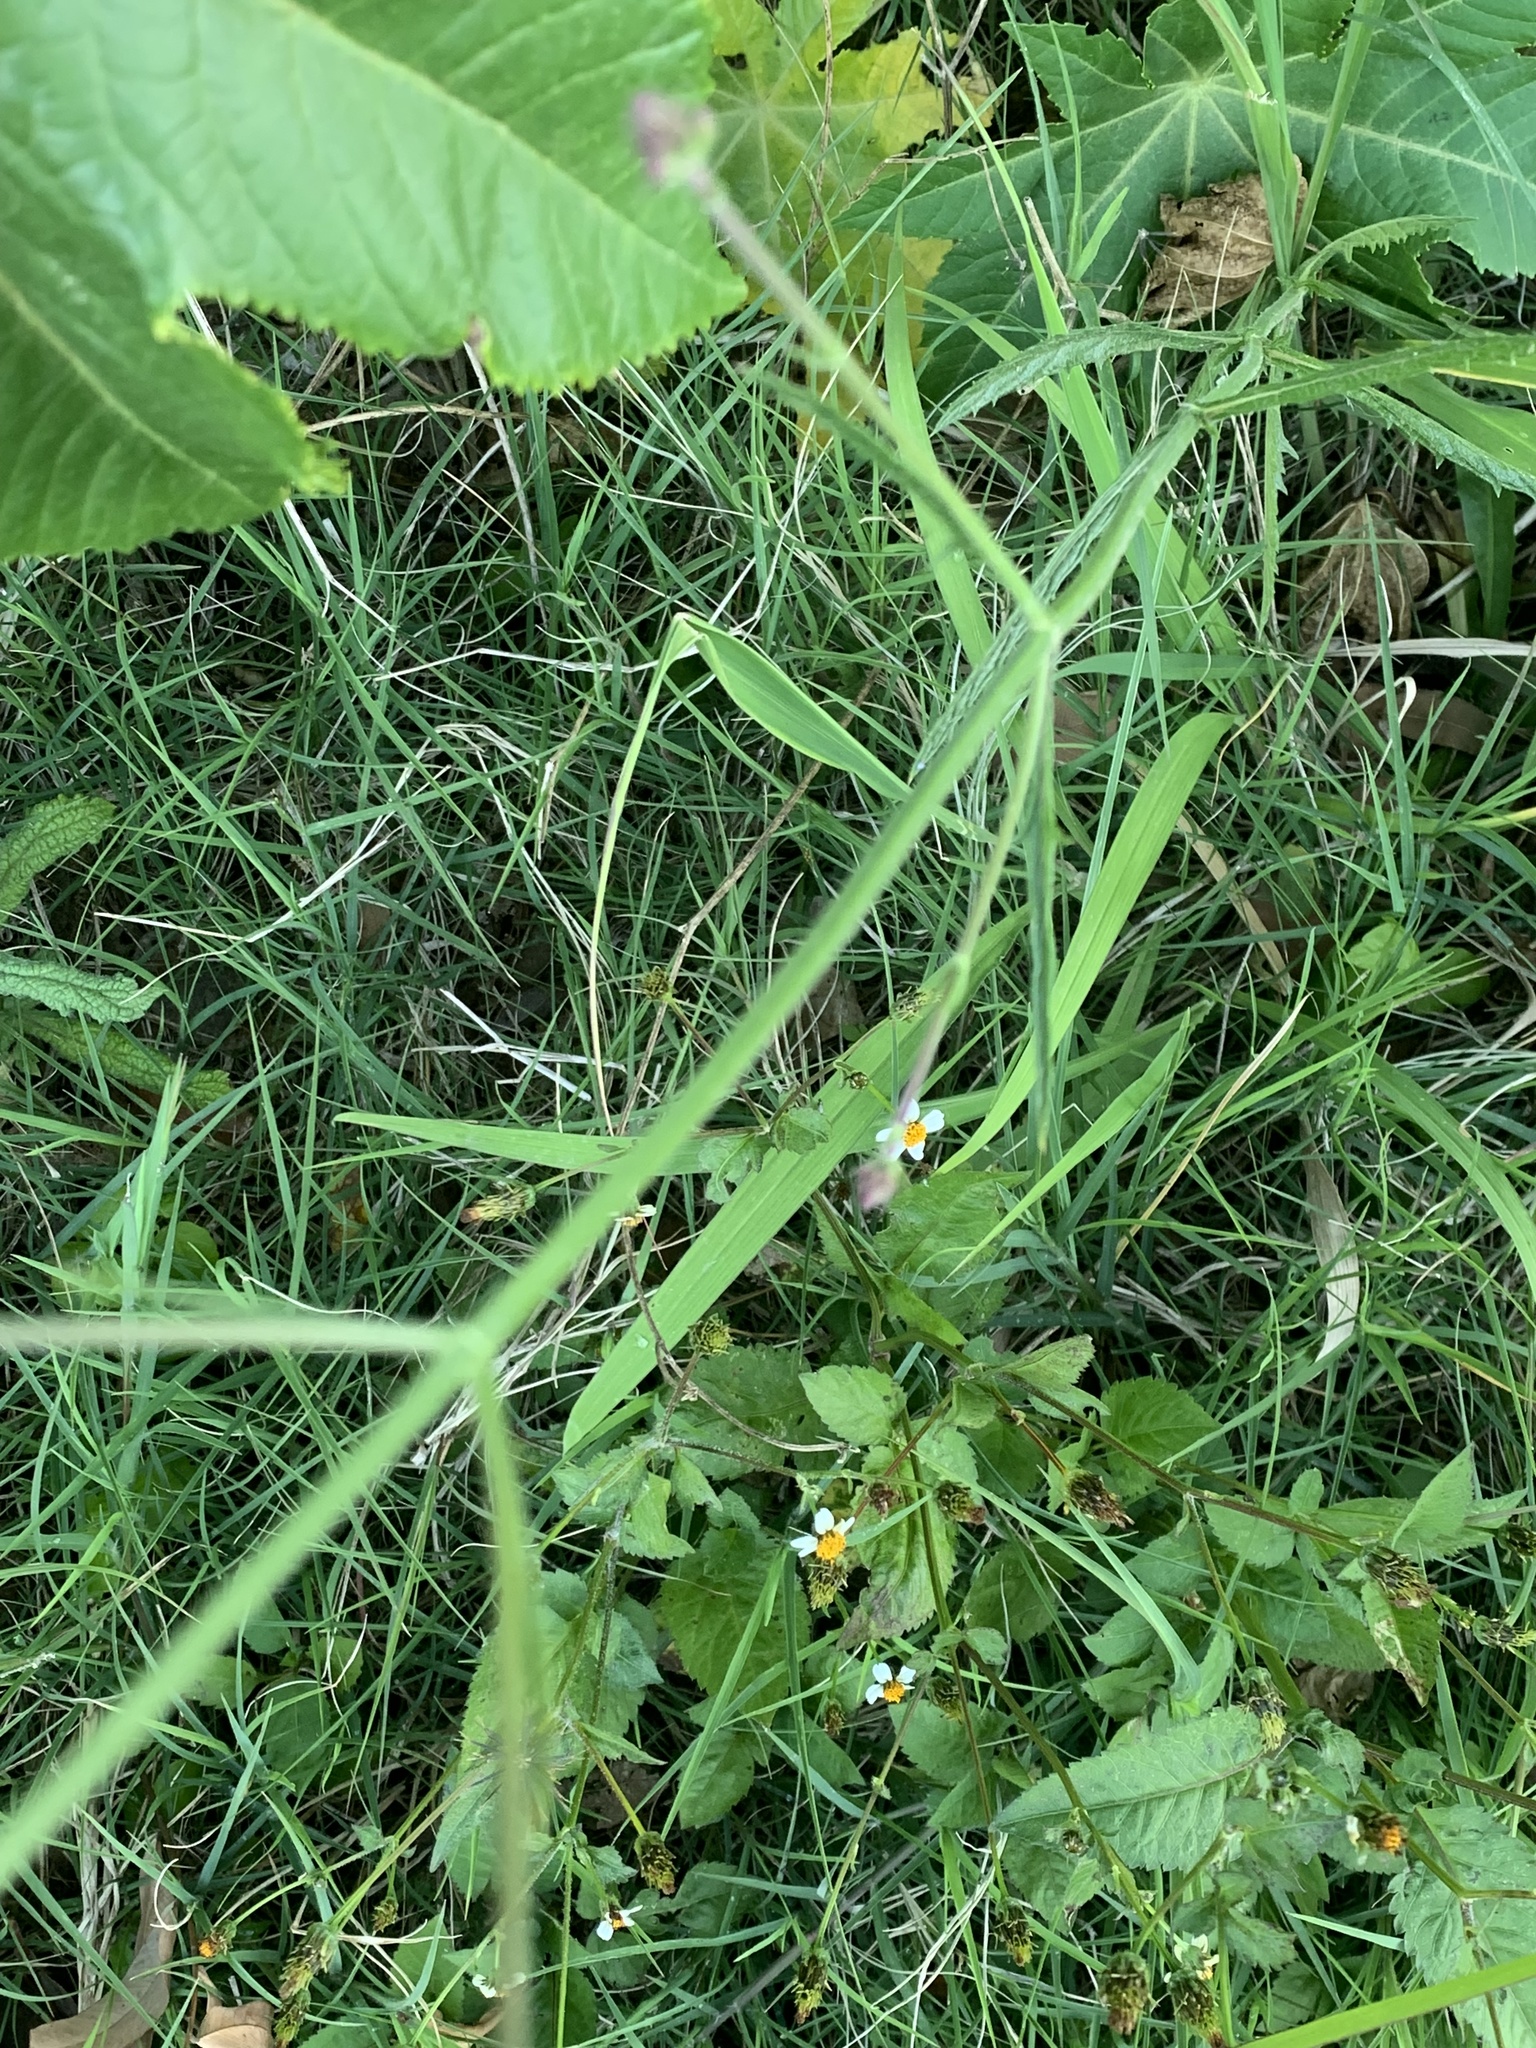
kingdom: Plantae
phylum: Tracheophyta
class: Magnoliopsida
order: Lamiales
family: Verbenaceae
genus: Verbena
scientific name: Verbena bonariensis
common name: Purpletop vervain
